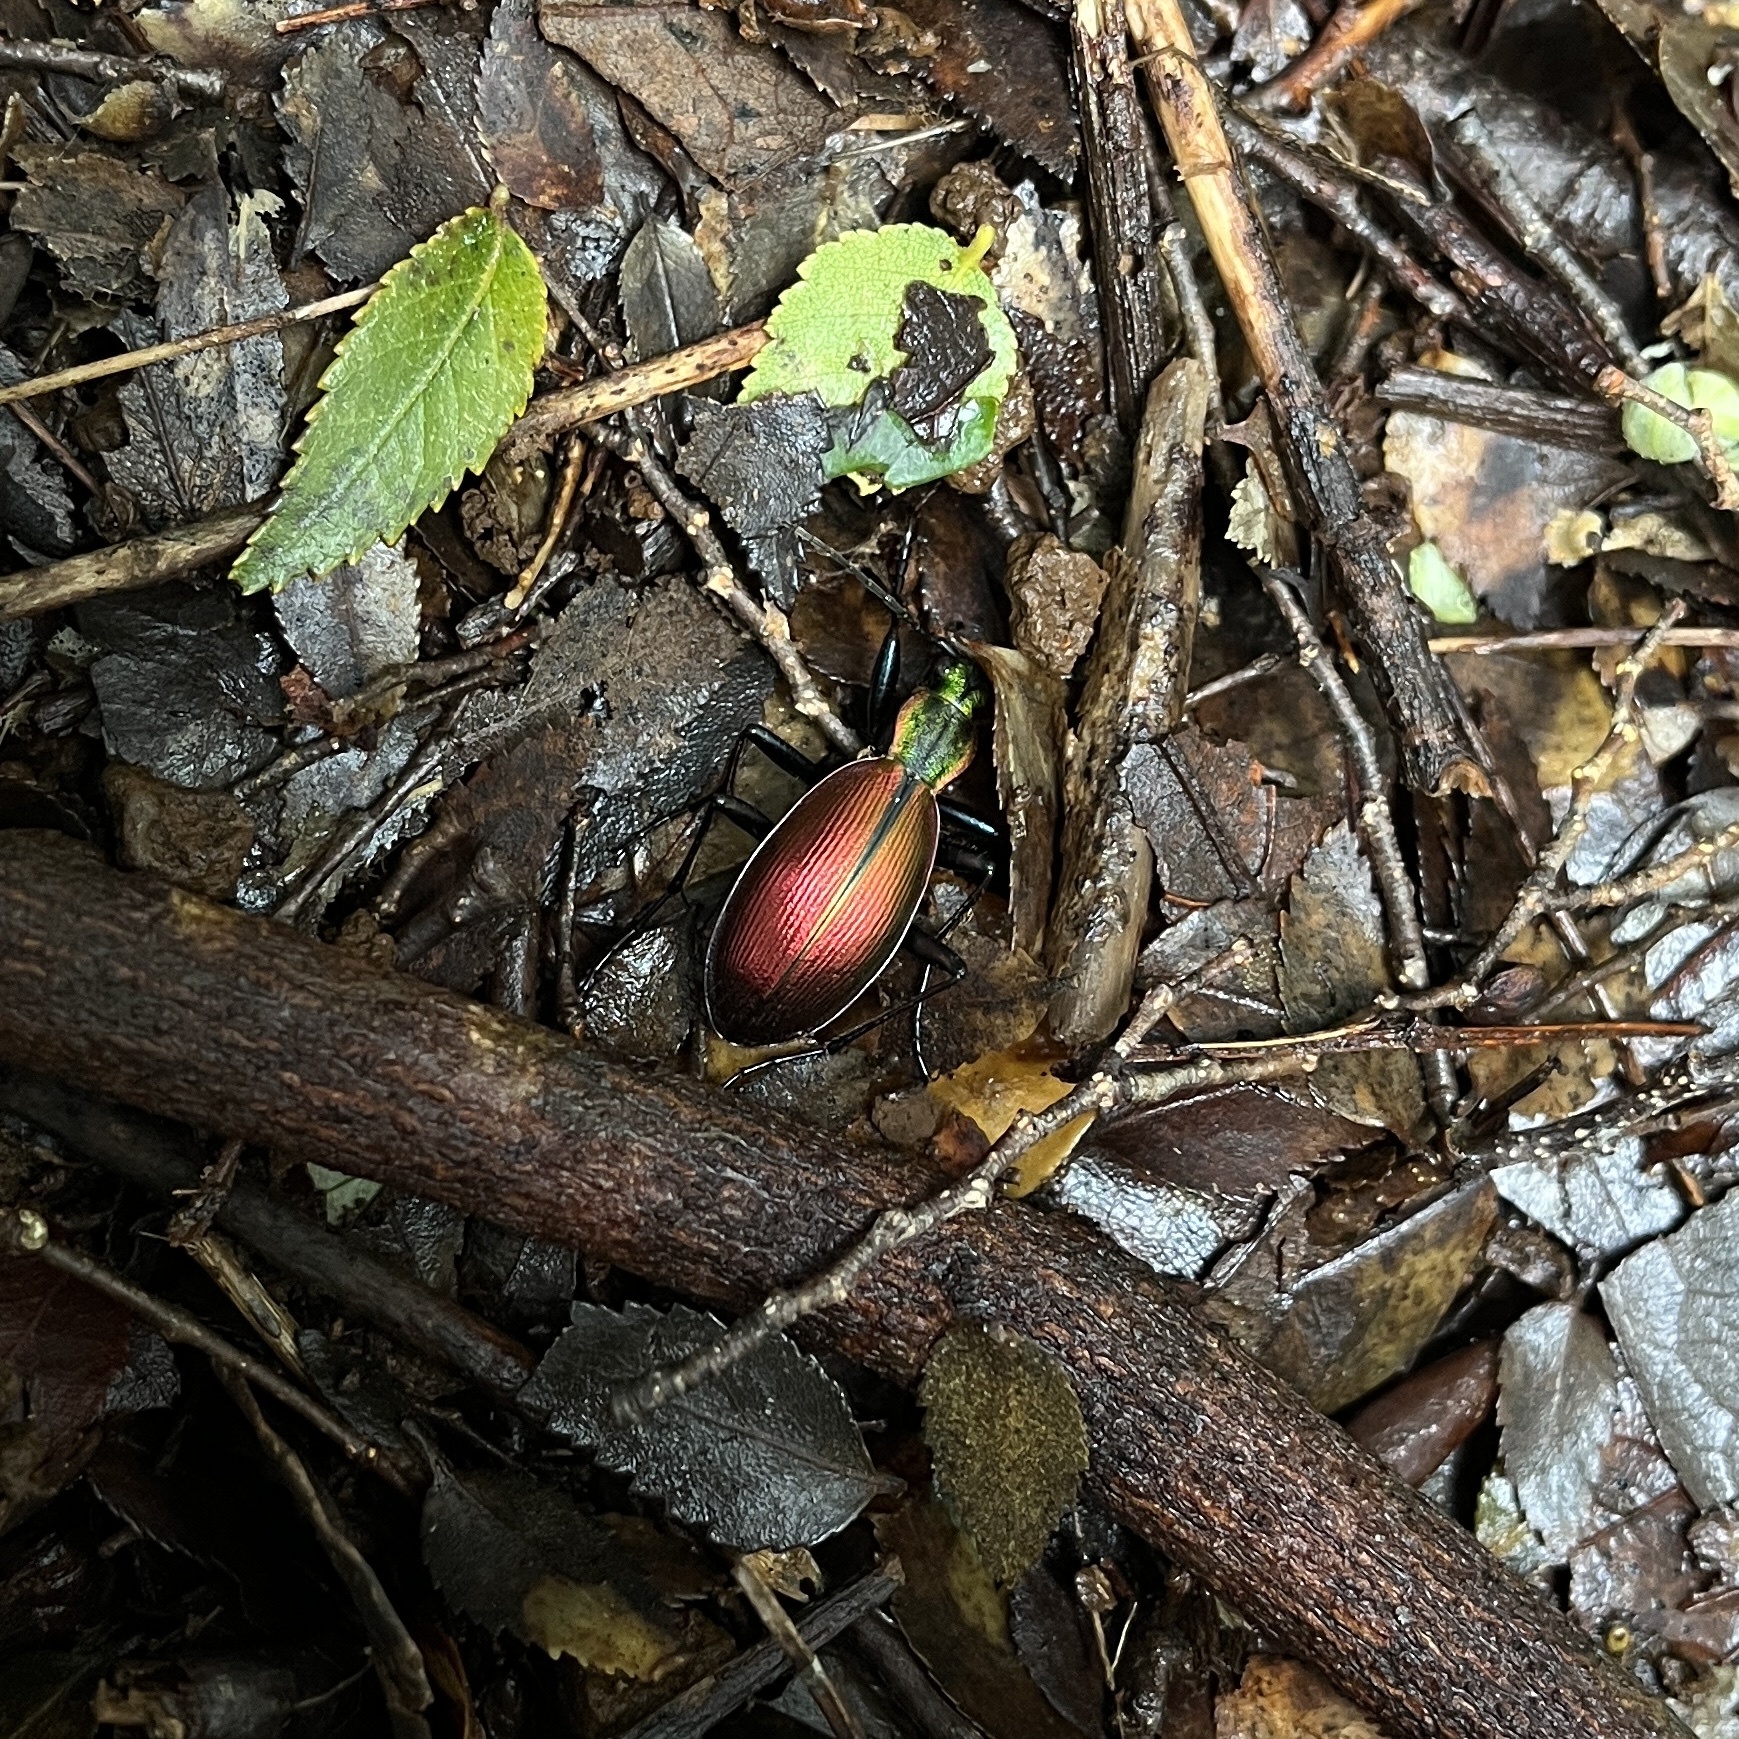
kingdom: Animalia
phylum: Arthropoda
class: Insecta
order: Coleoptera
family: Carabidae
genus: Ceroglossus
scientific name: Ceroglossus chilensis
